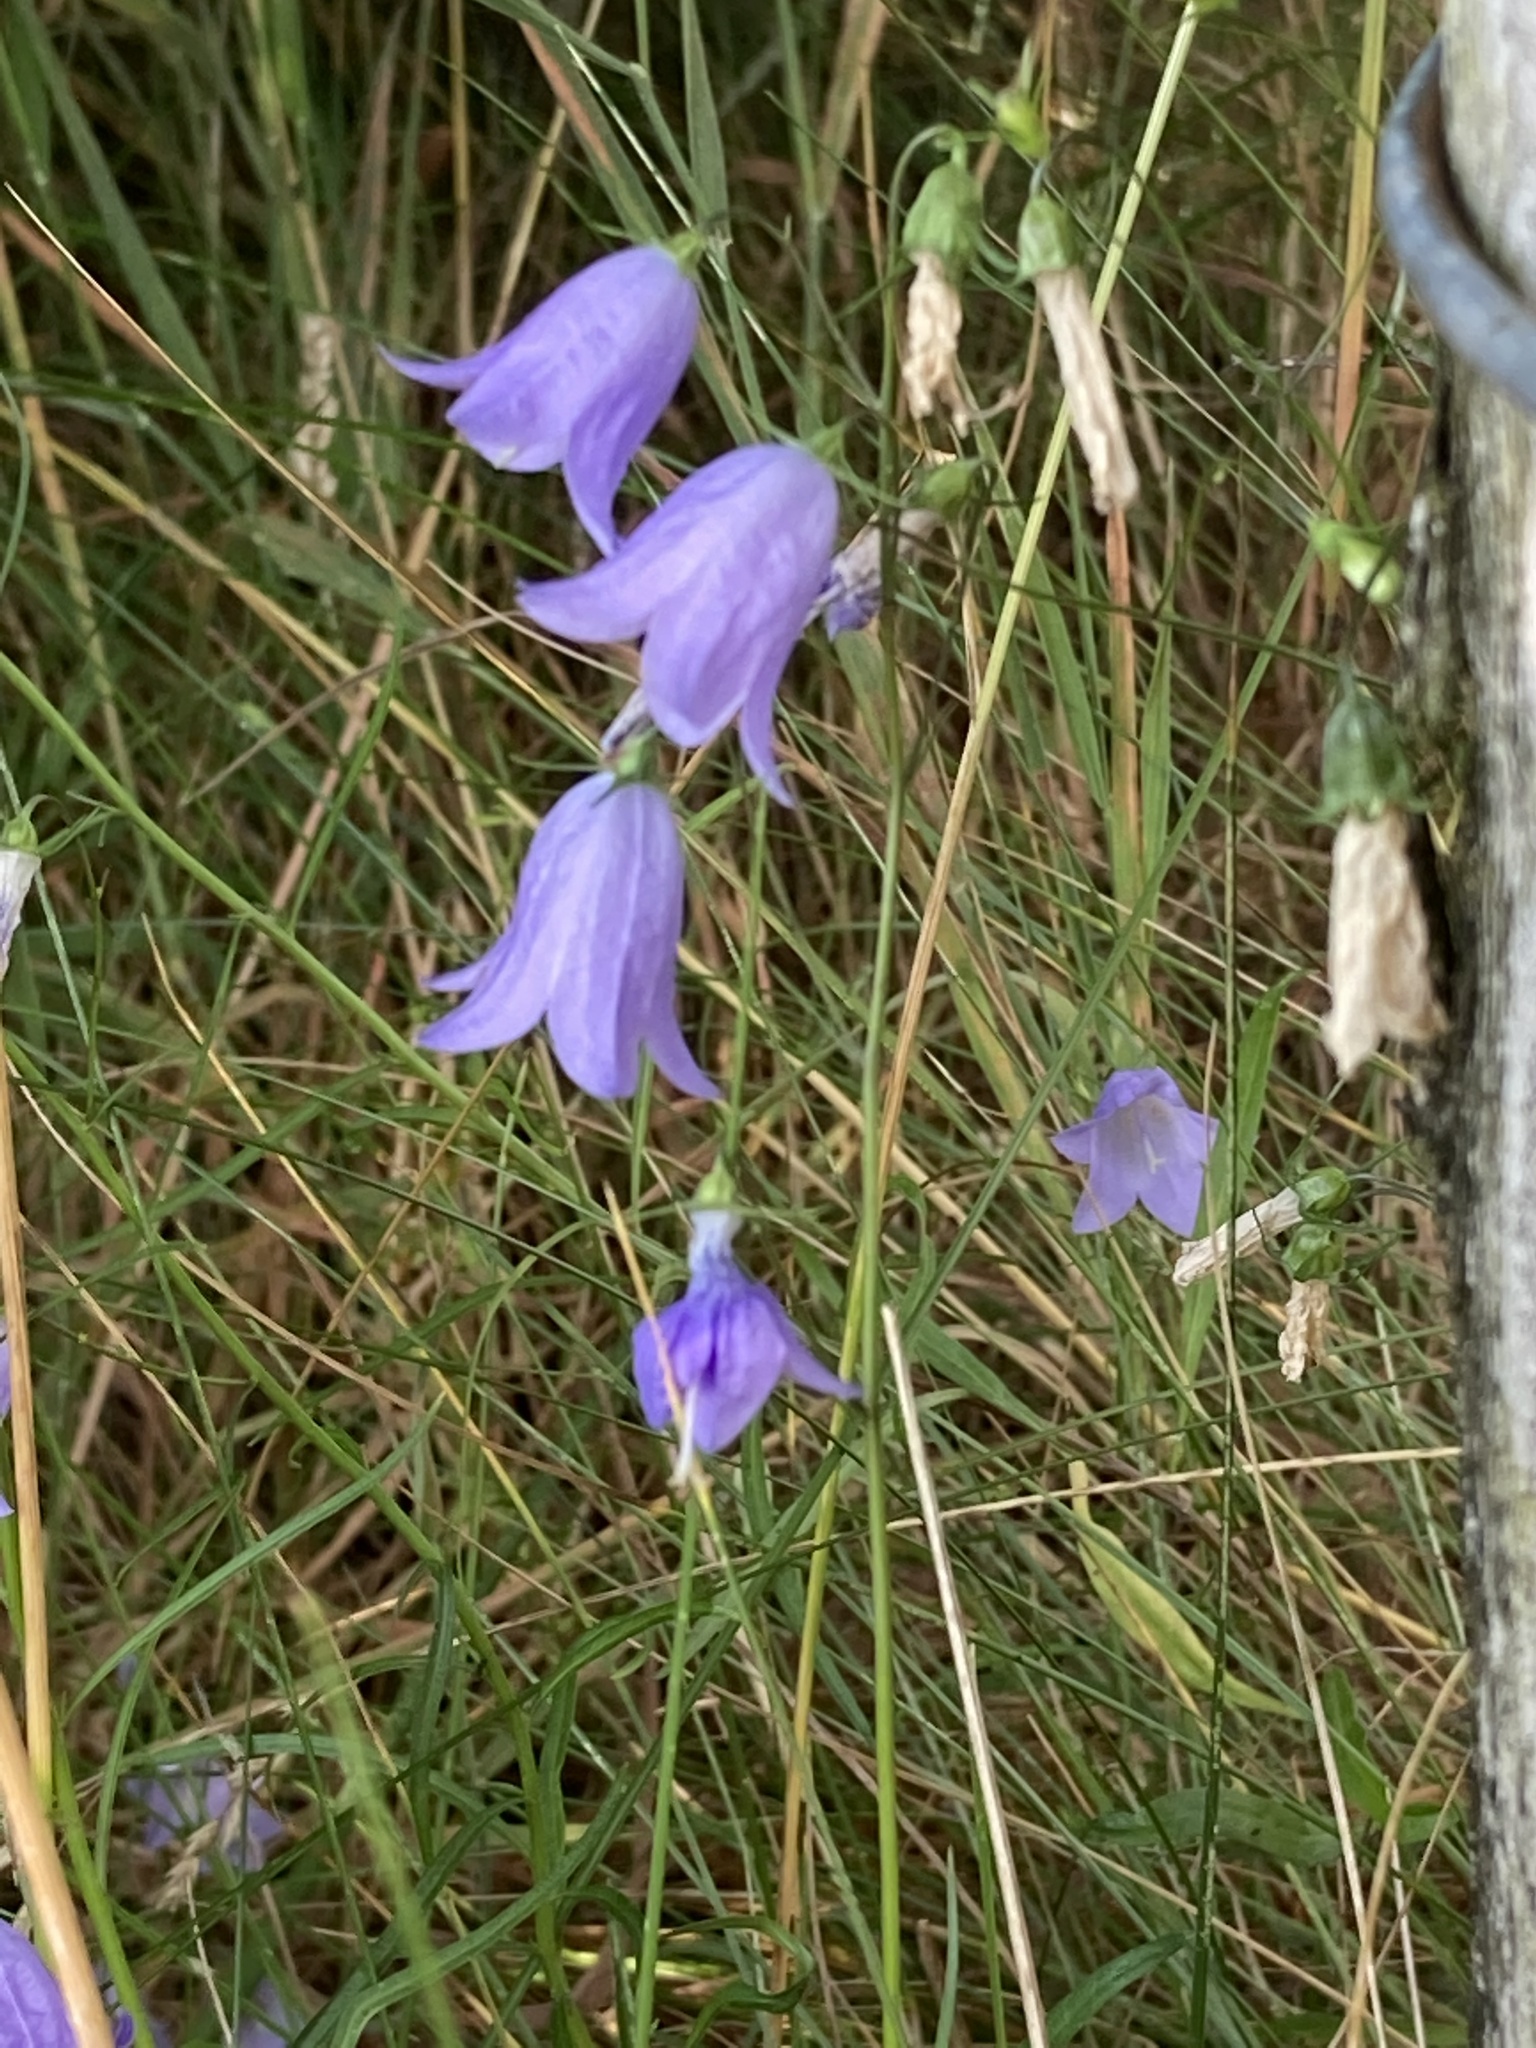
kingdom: Plantae
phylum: Tracheophyta
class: Magnoliopsida
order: Asterales
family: Campanulaceae
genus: Campanula
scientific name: Campanula rotundifolia
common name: Harebell
